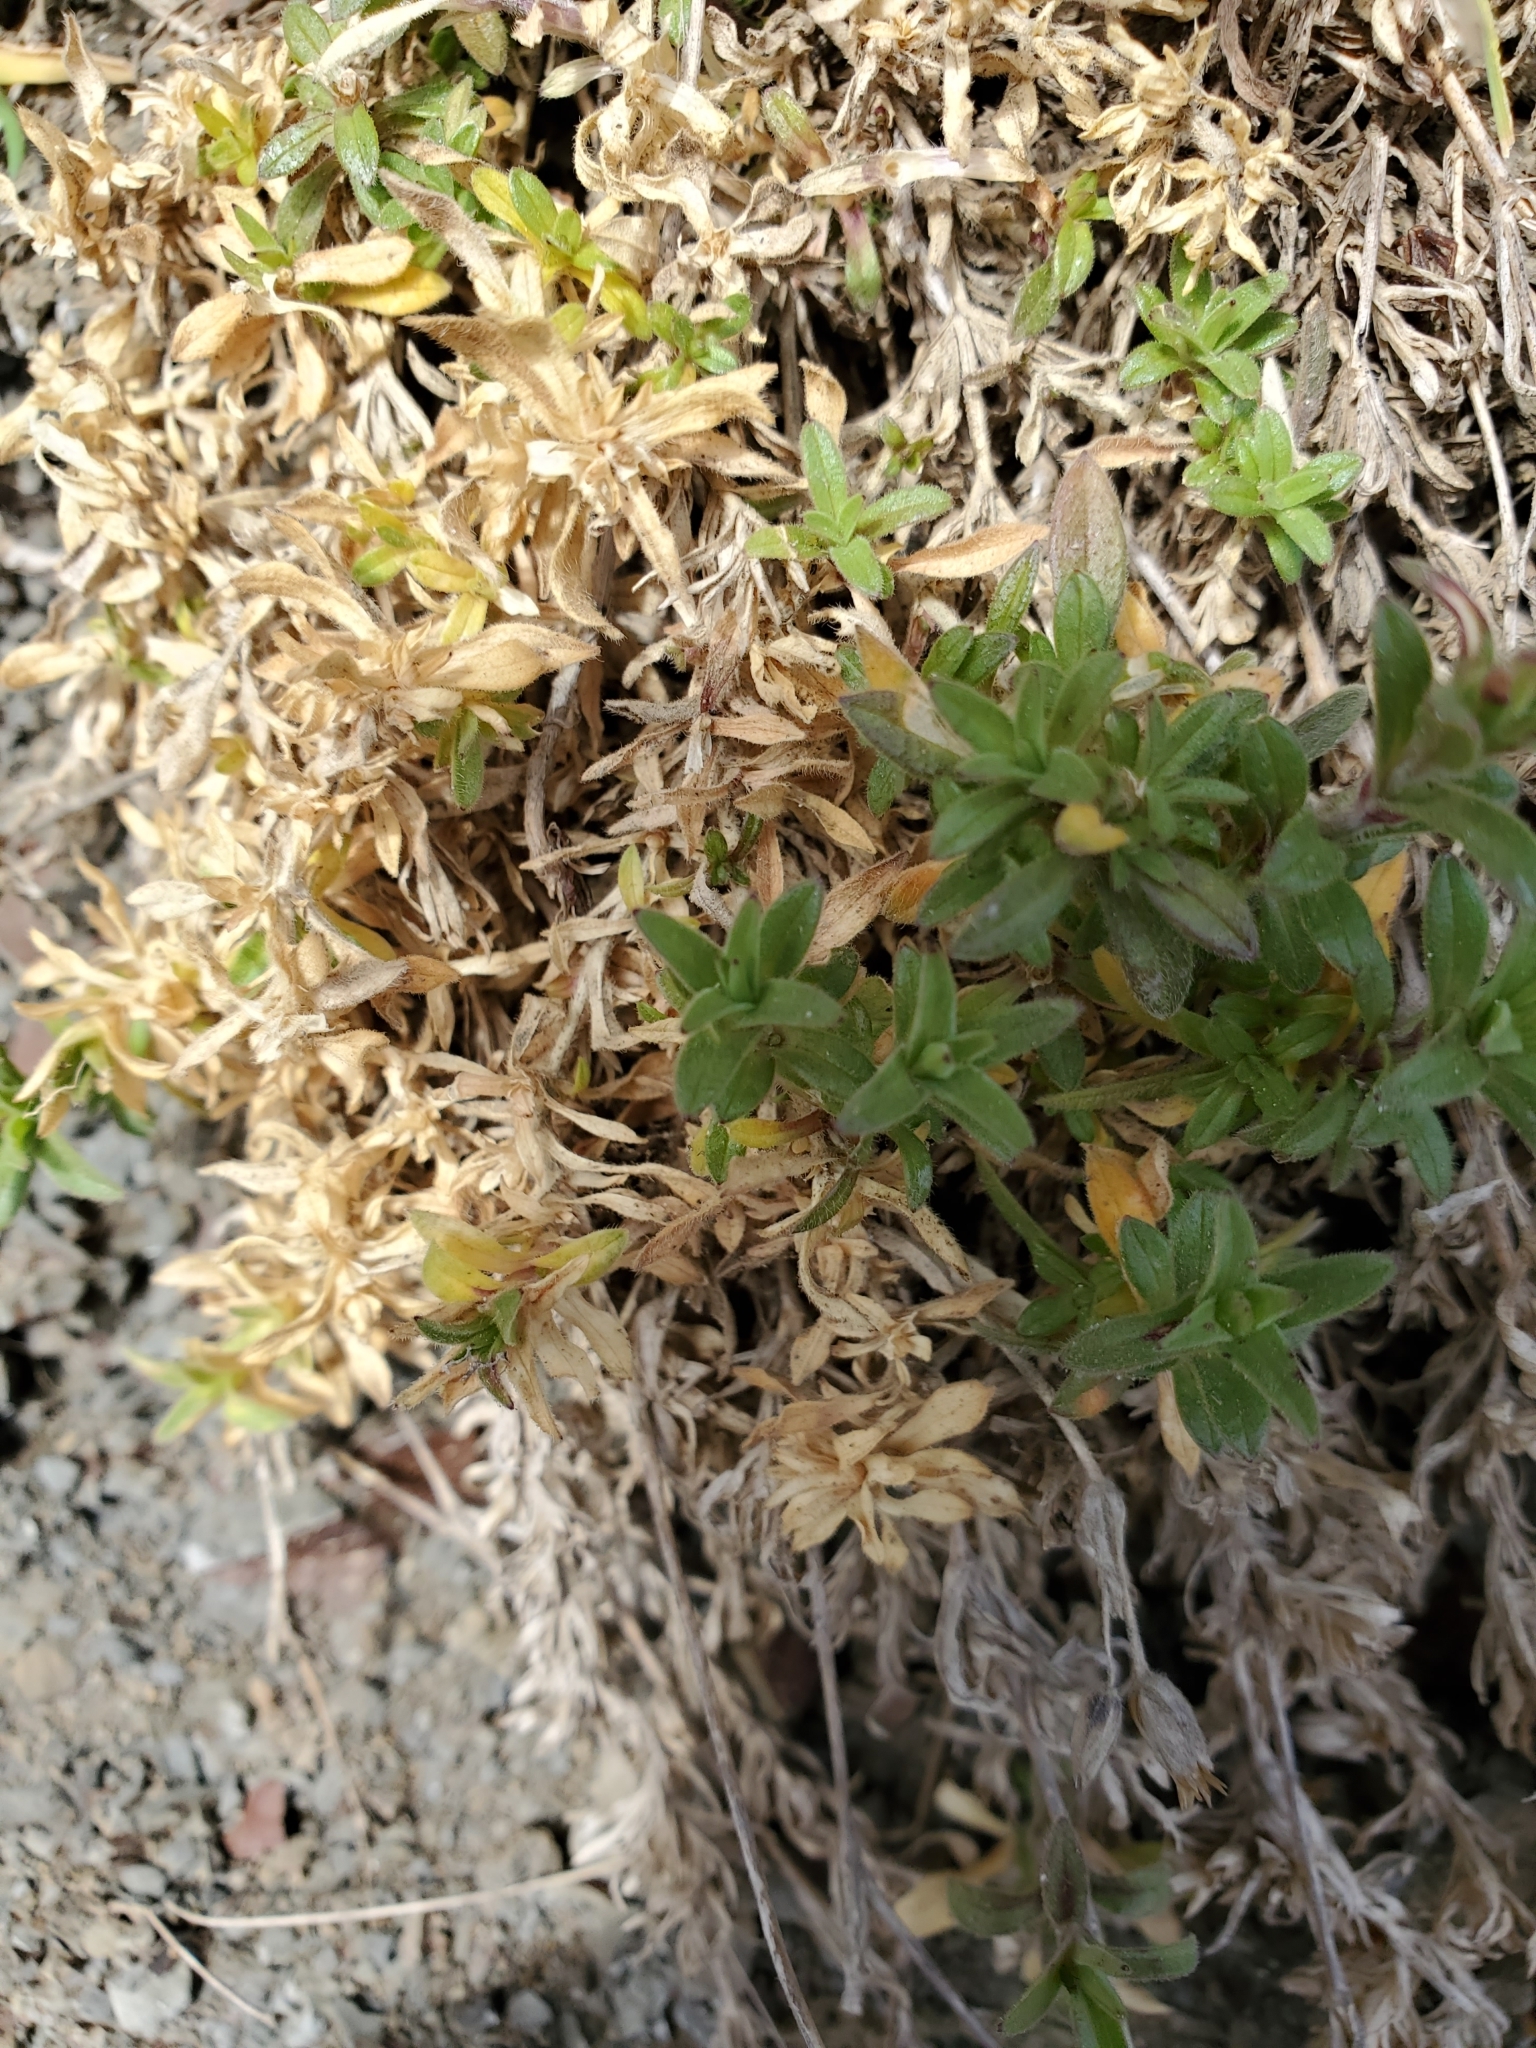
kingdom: Plantae
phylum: Tracheophyta
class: Magnoliopsida
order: Caryophyllales
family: Caryophyllaceae
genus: Cerastium
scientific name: Cerastium arvense
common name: Field mouse-ear
